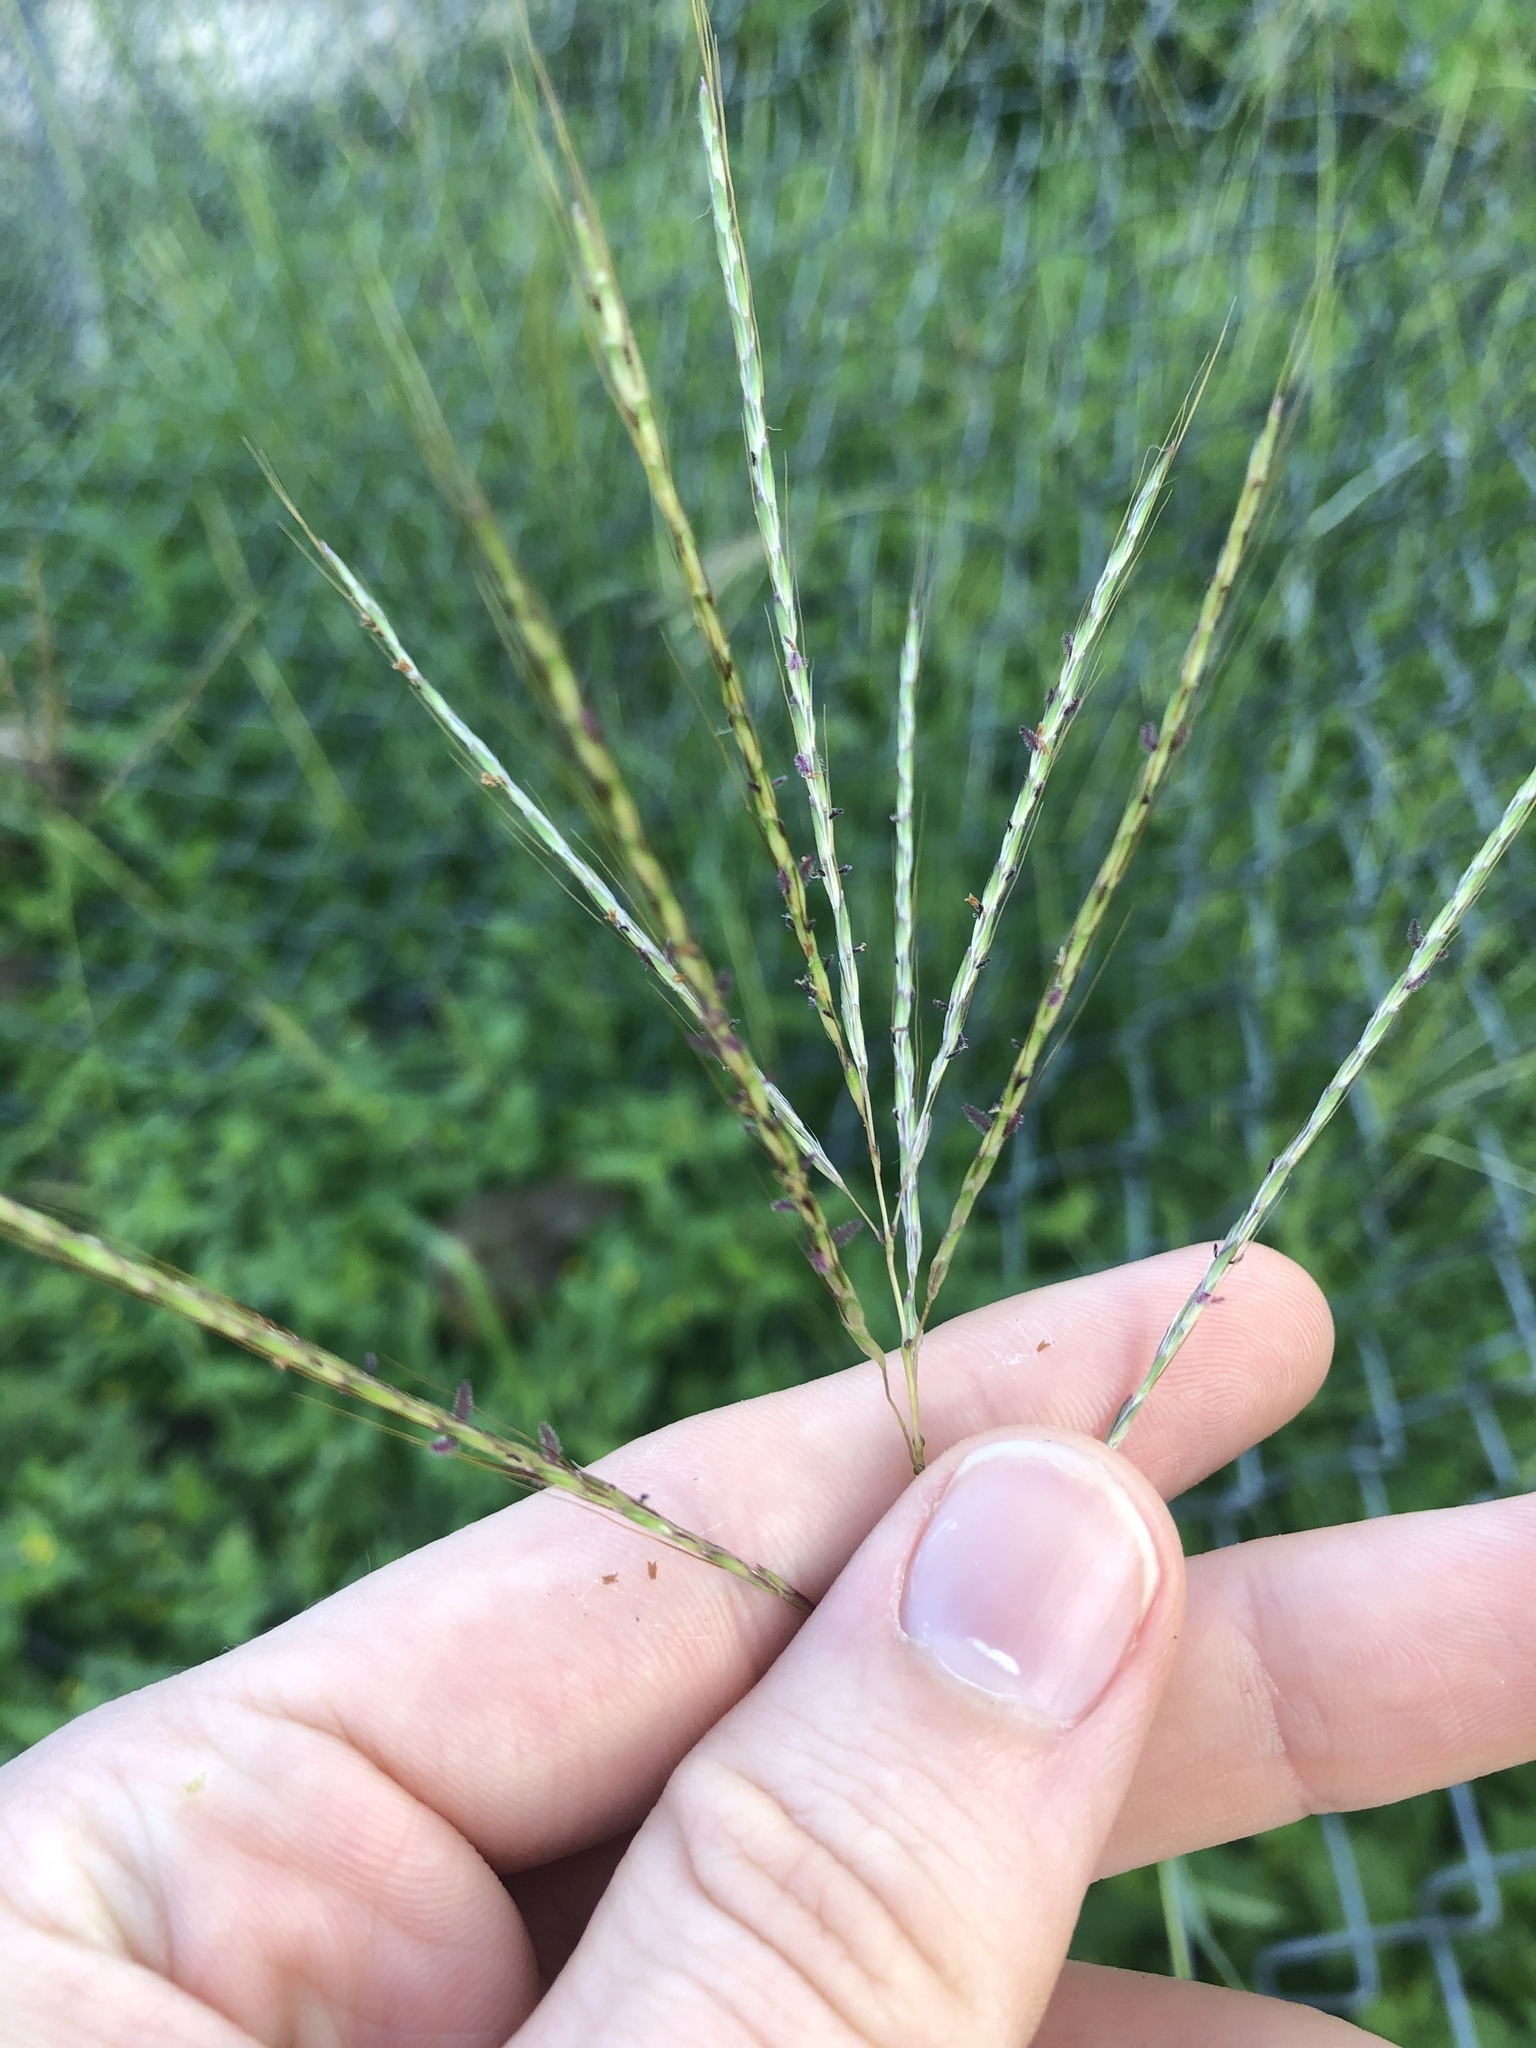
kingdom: Plantae
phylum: Tracheophyta
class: Liliopsida
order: Poales
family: Poaceae
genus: Bothriochloa
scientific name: Bothriochloa ischaemum
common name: Yellow bluestem
